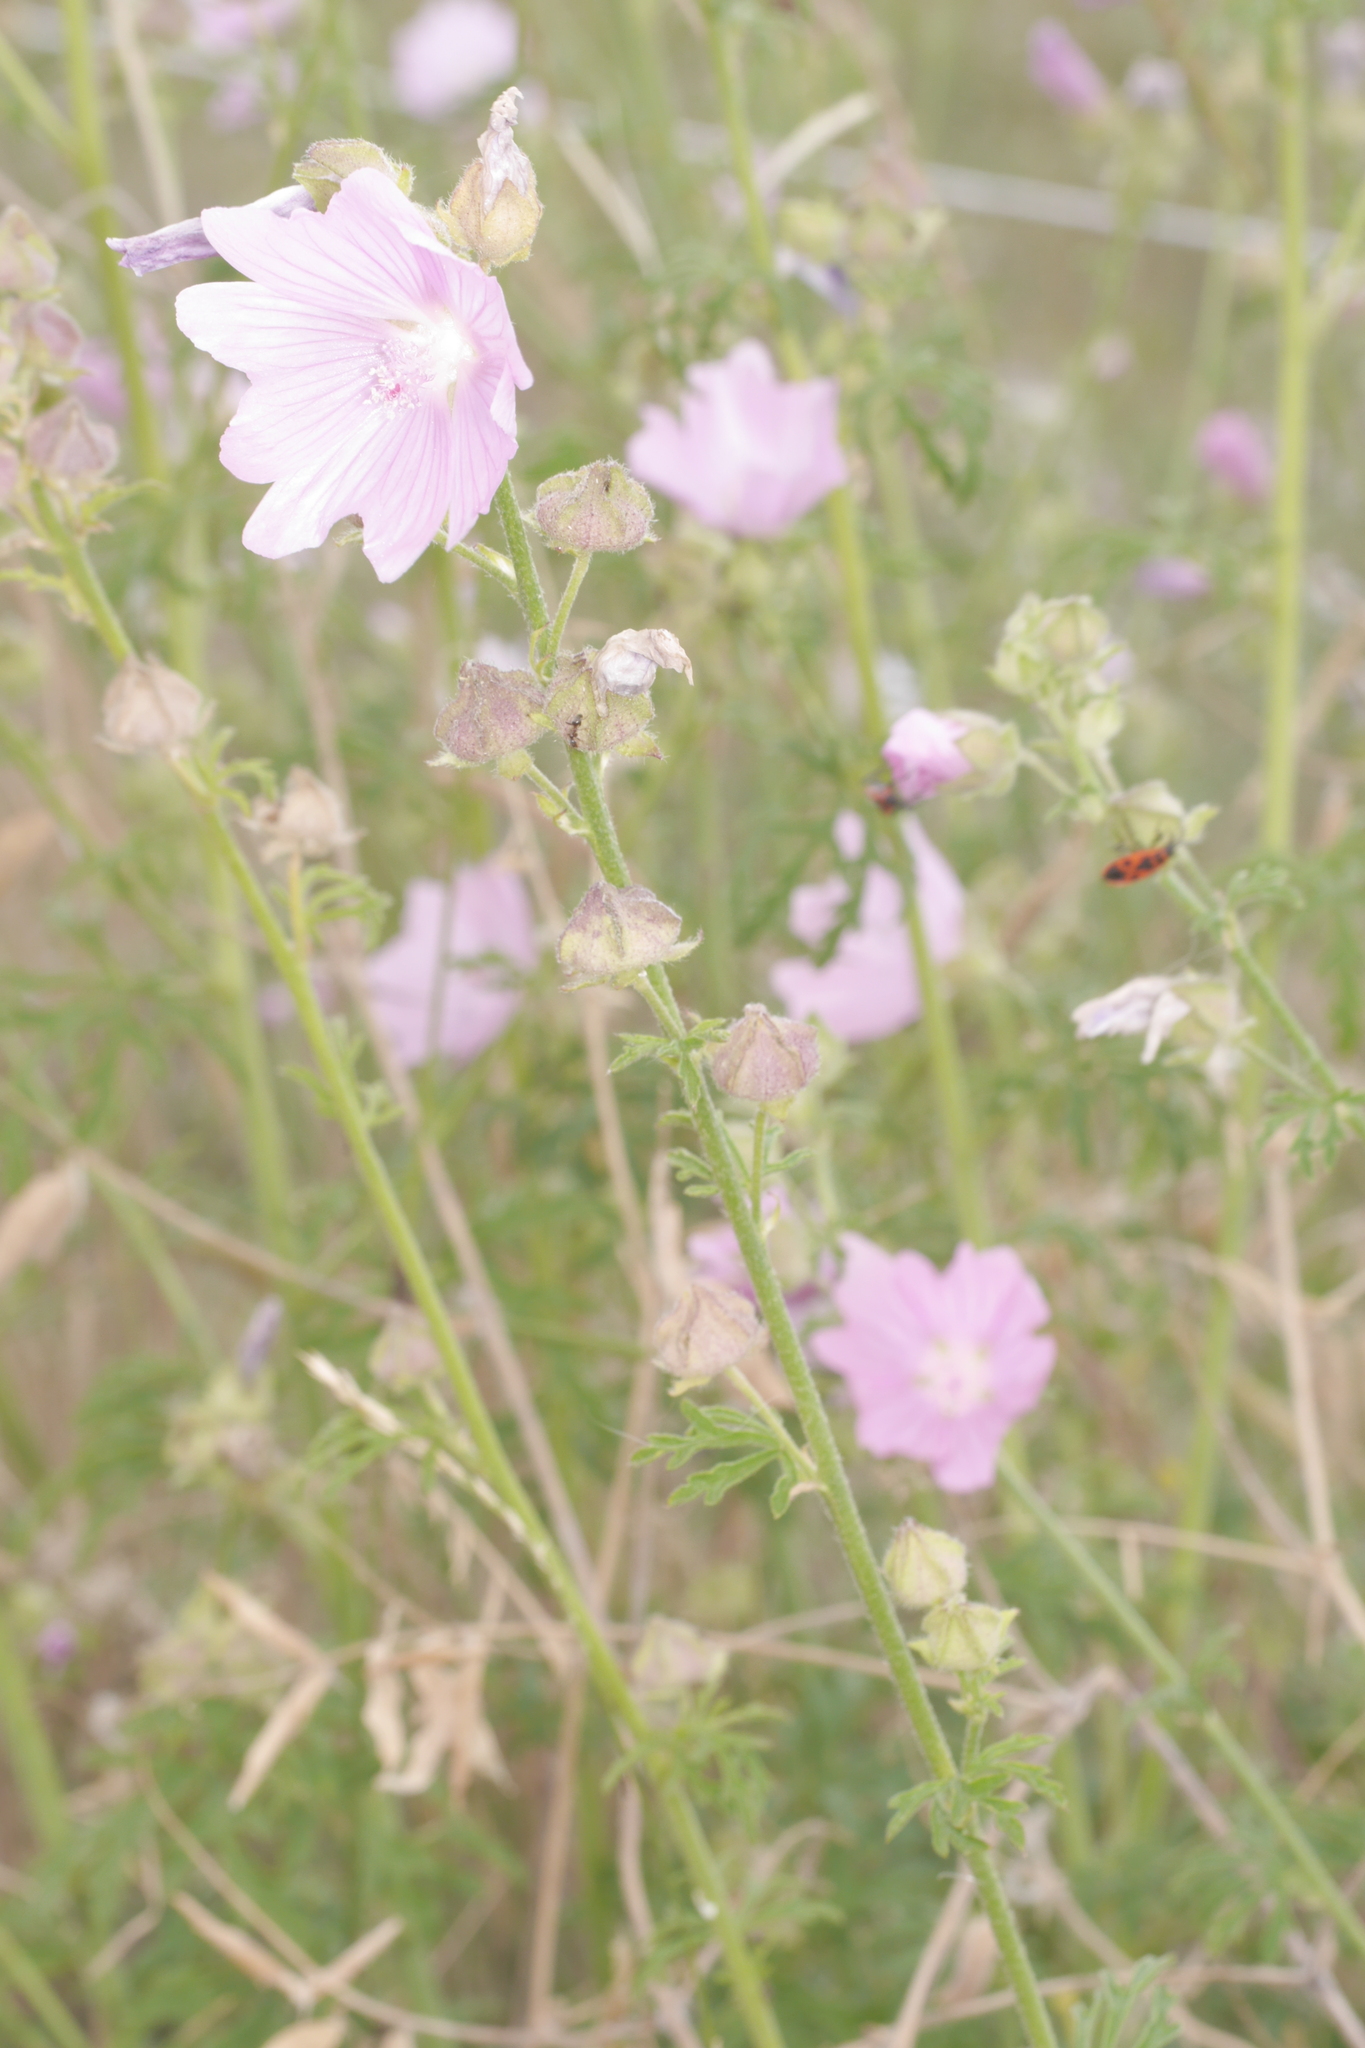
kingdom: Plantae
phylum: Tracheophyta
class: Magnoliopsida
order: Malvales
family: Malvaceae
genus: Malva
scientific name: Malva alcea
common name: Greater musk-mallow
